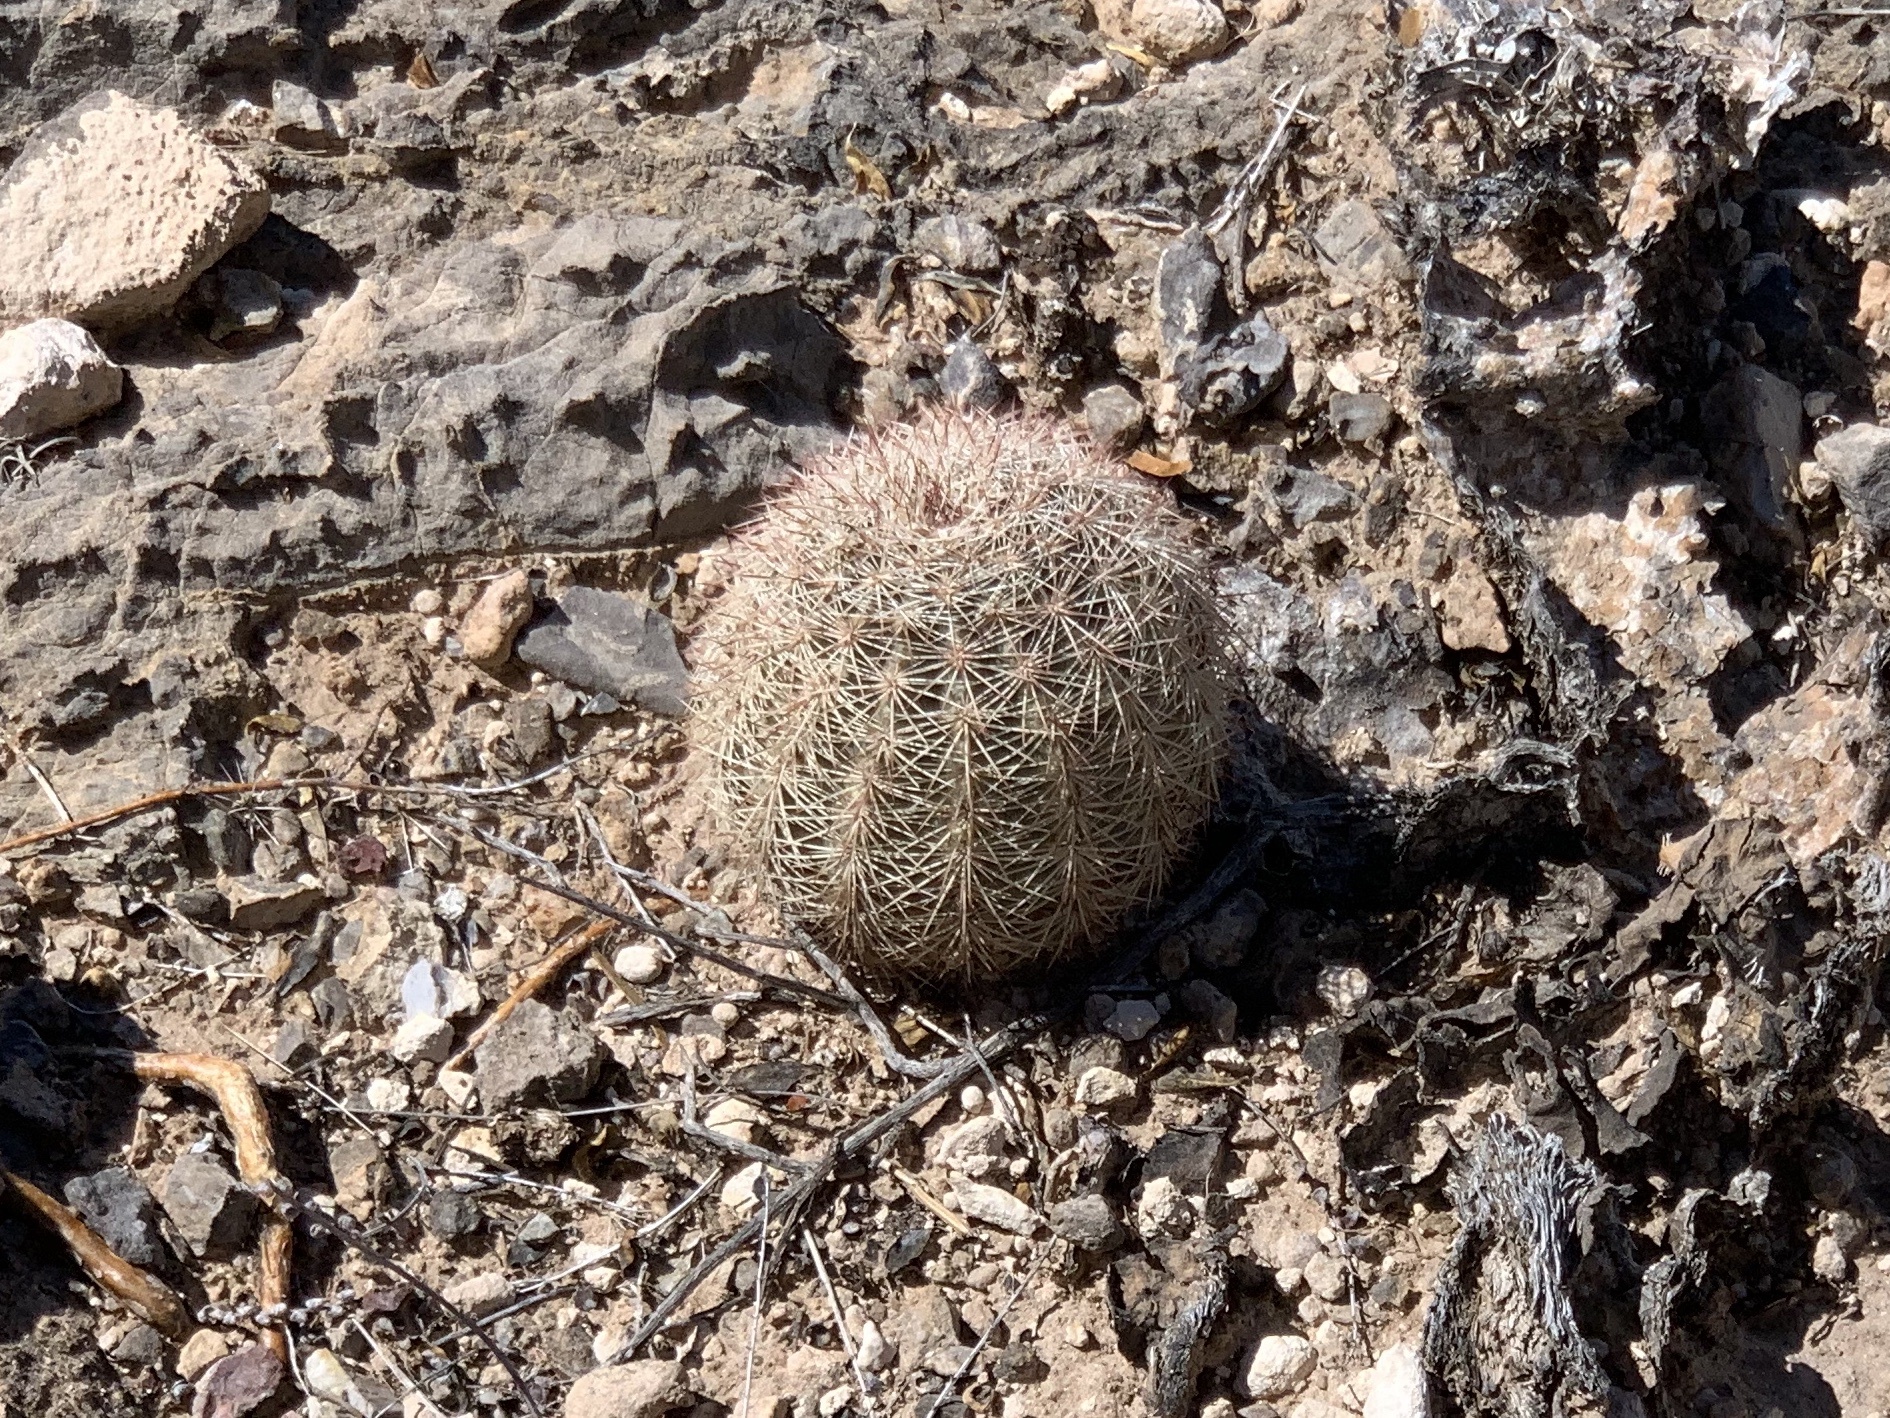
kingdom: Plantae
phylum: Tracheophyta
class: Magnoliopsida
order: Caryophyllales
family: Cactaceae
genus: Echinocereus
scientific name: Echinocereus dasyacanthus
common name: Spiny hedgehog cactus
